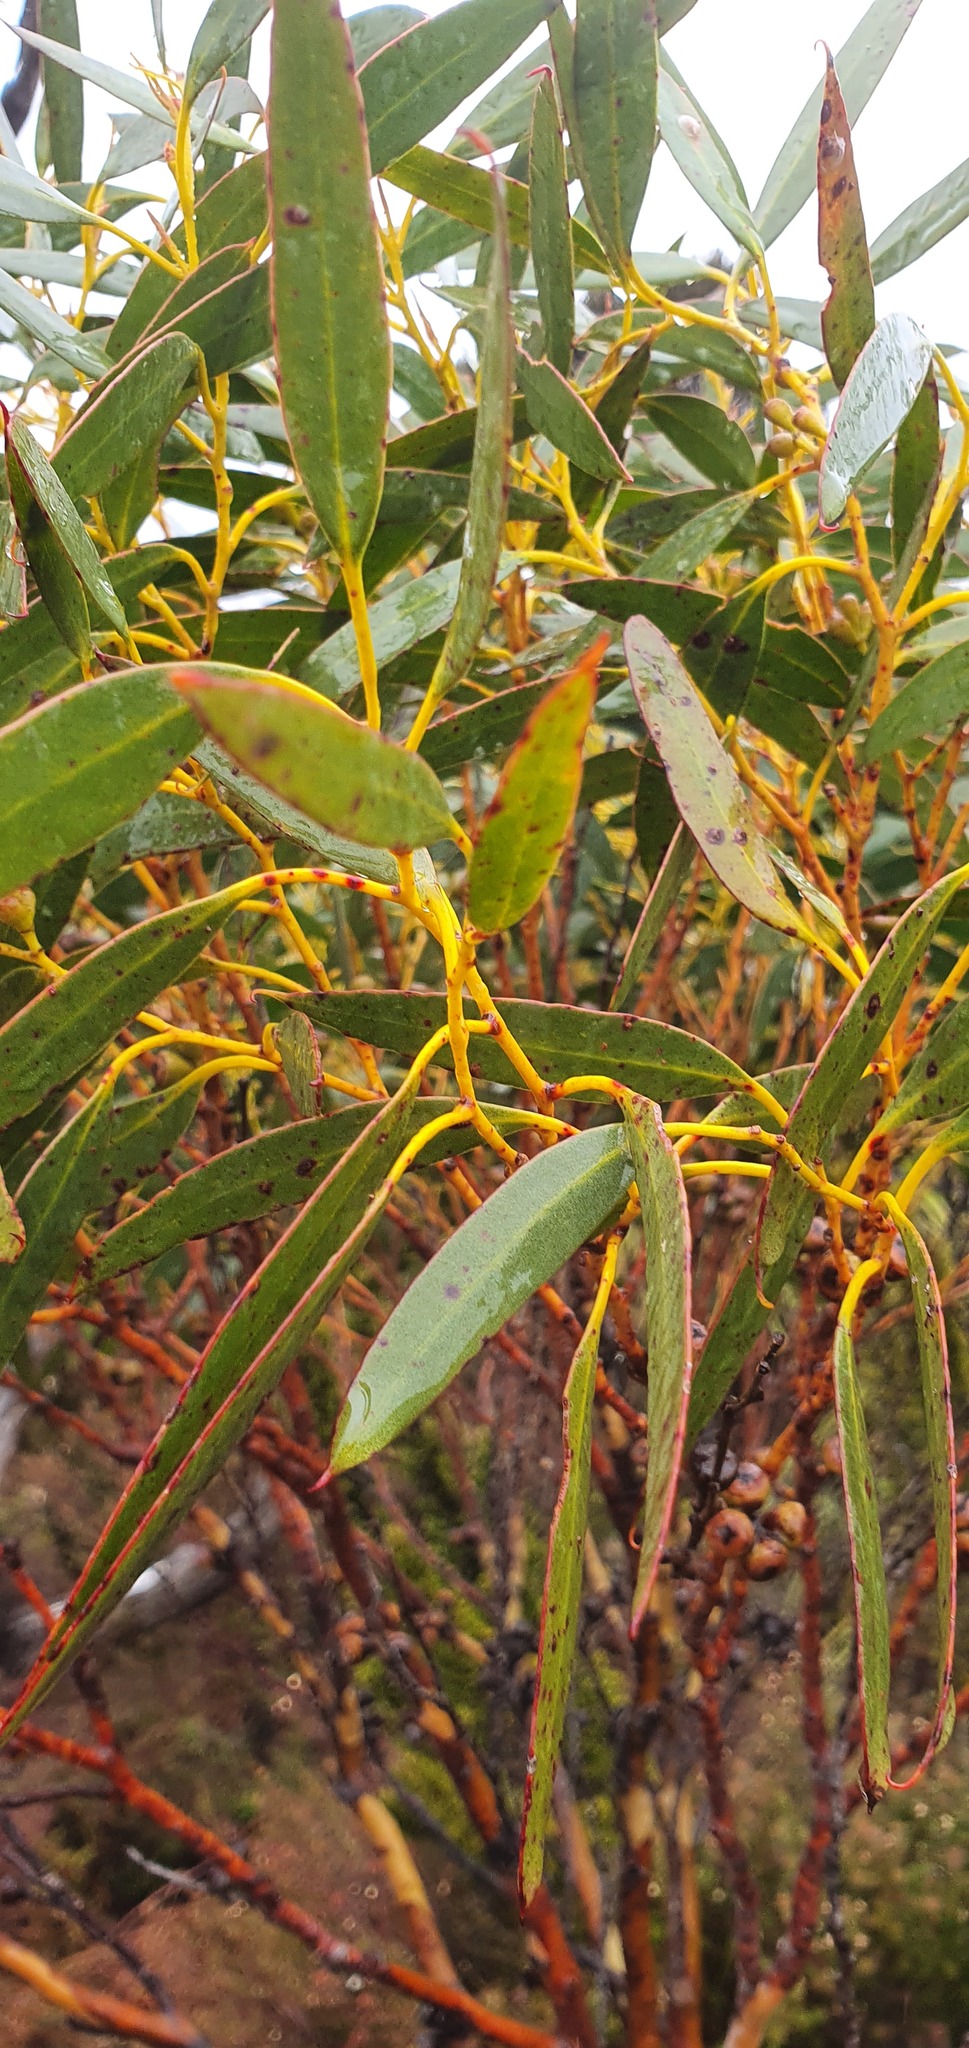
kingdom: Plantae
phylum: Tracheophyta
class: Magnoliopsida
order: Myrtales
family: Myrtaceae
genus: Eucalyptus
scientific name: Eucalyptus coccifera
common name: Tasmanian snow-gum
